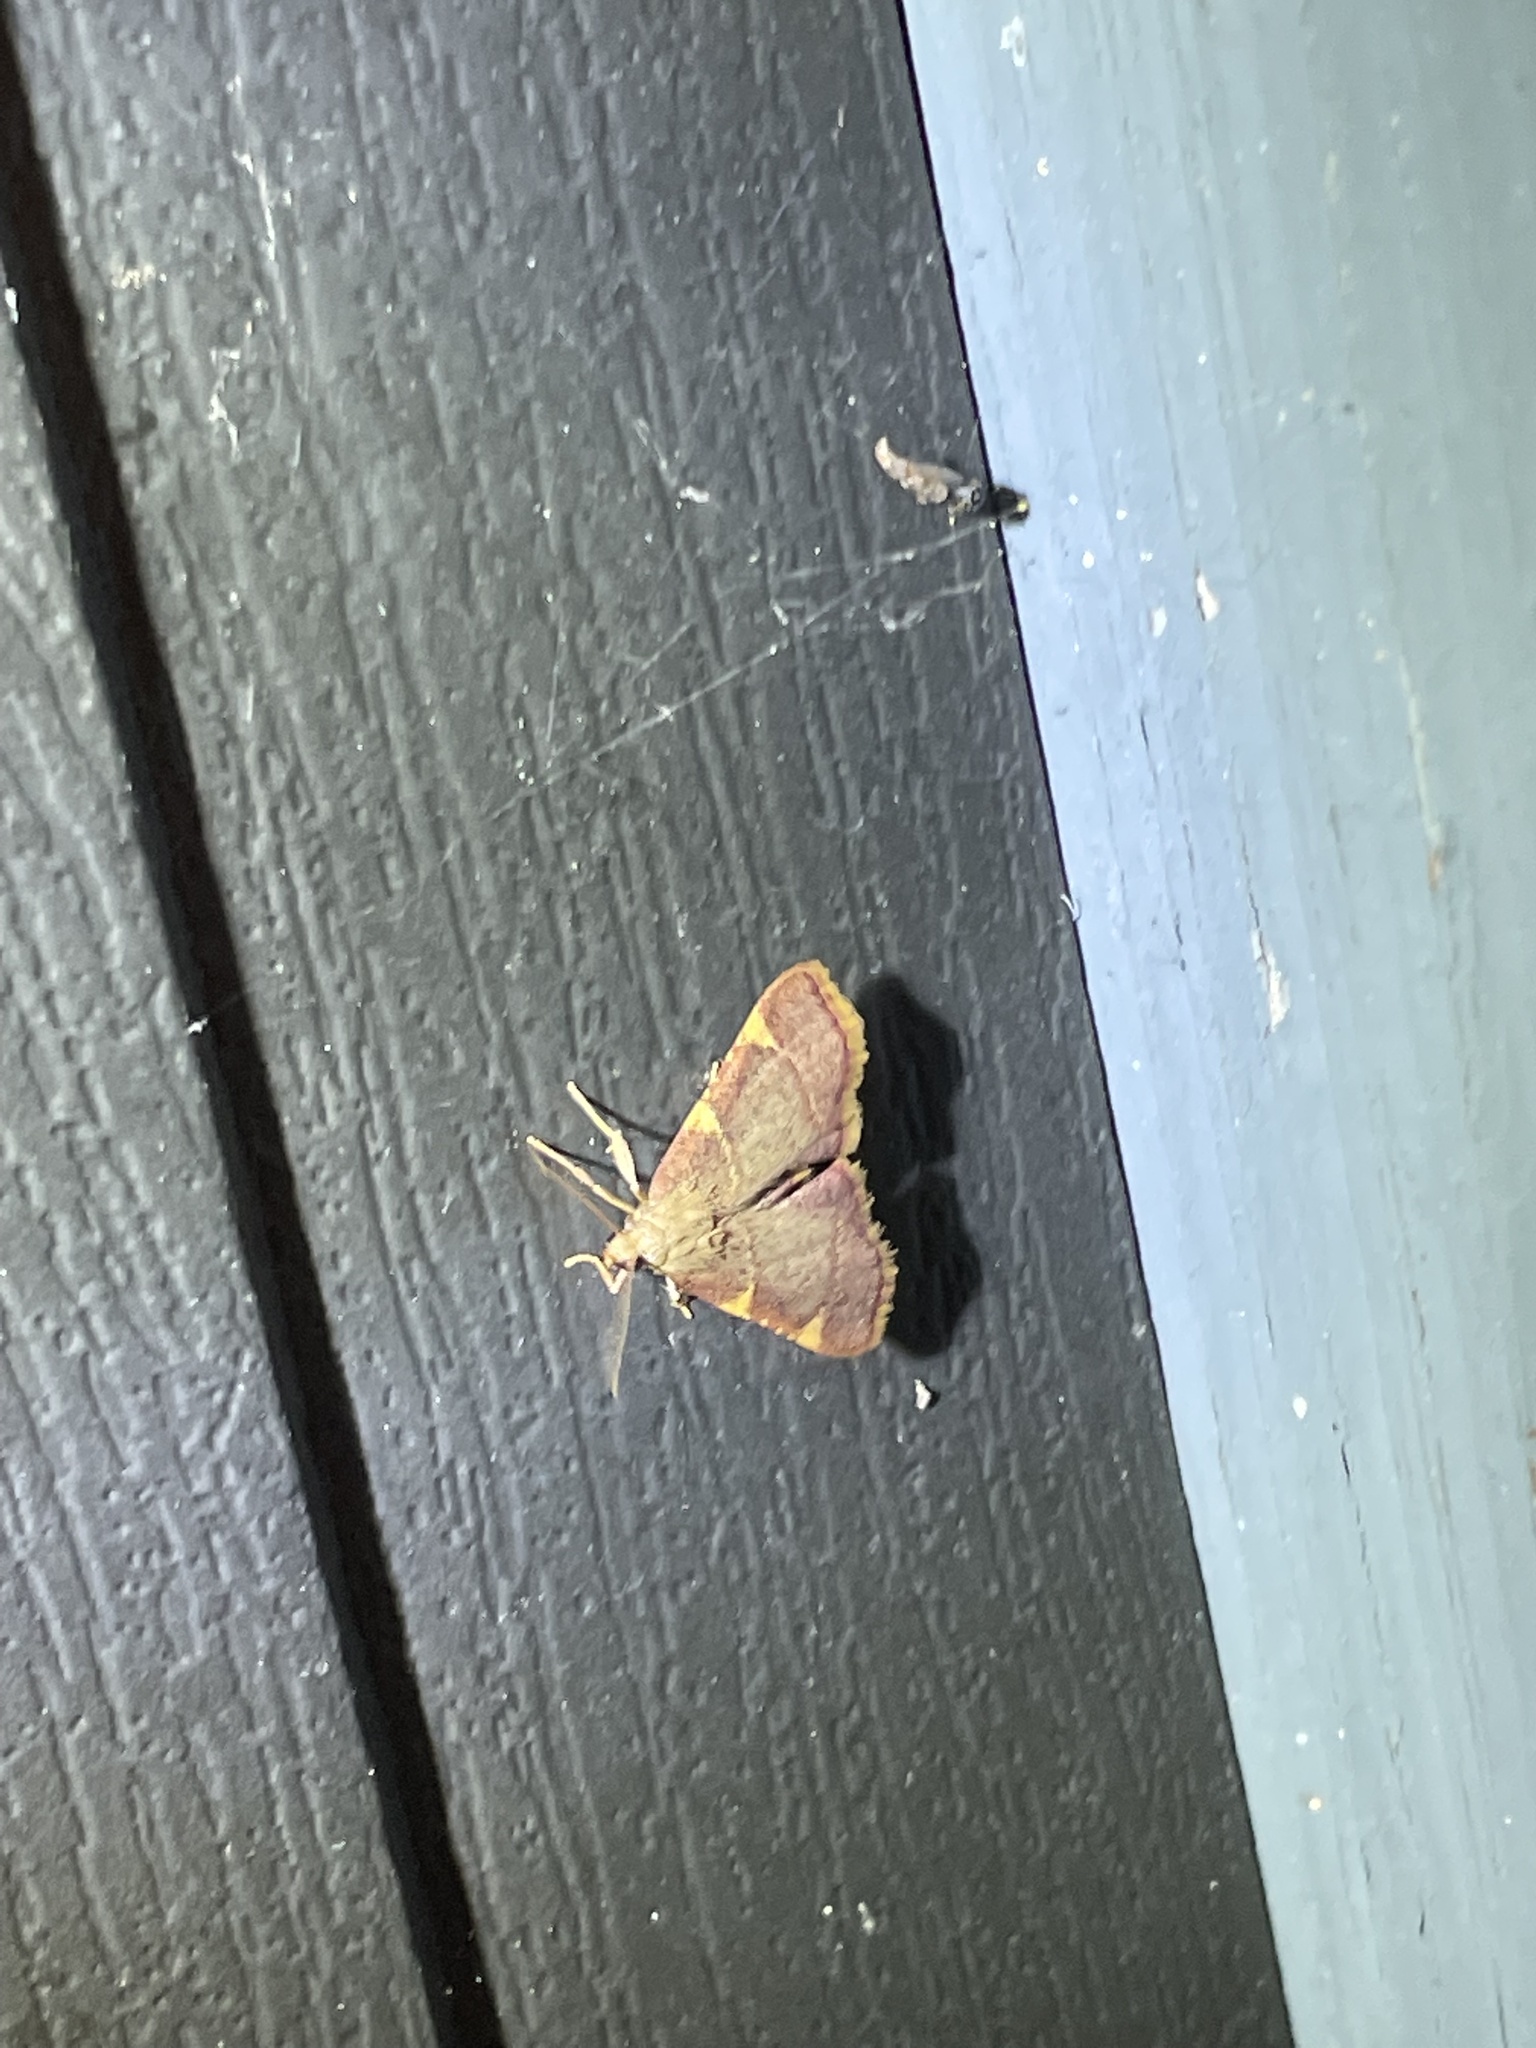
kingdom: Animalia
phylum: Arthropoda
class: Insecta
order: Lepidoptera
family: Pyralidae
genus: Hypsopygia
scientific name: Hypsopygia olinalis
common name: Yellow-fringed dolichomia moth
